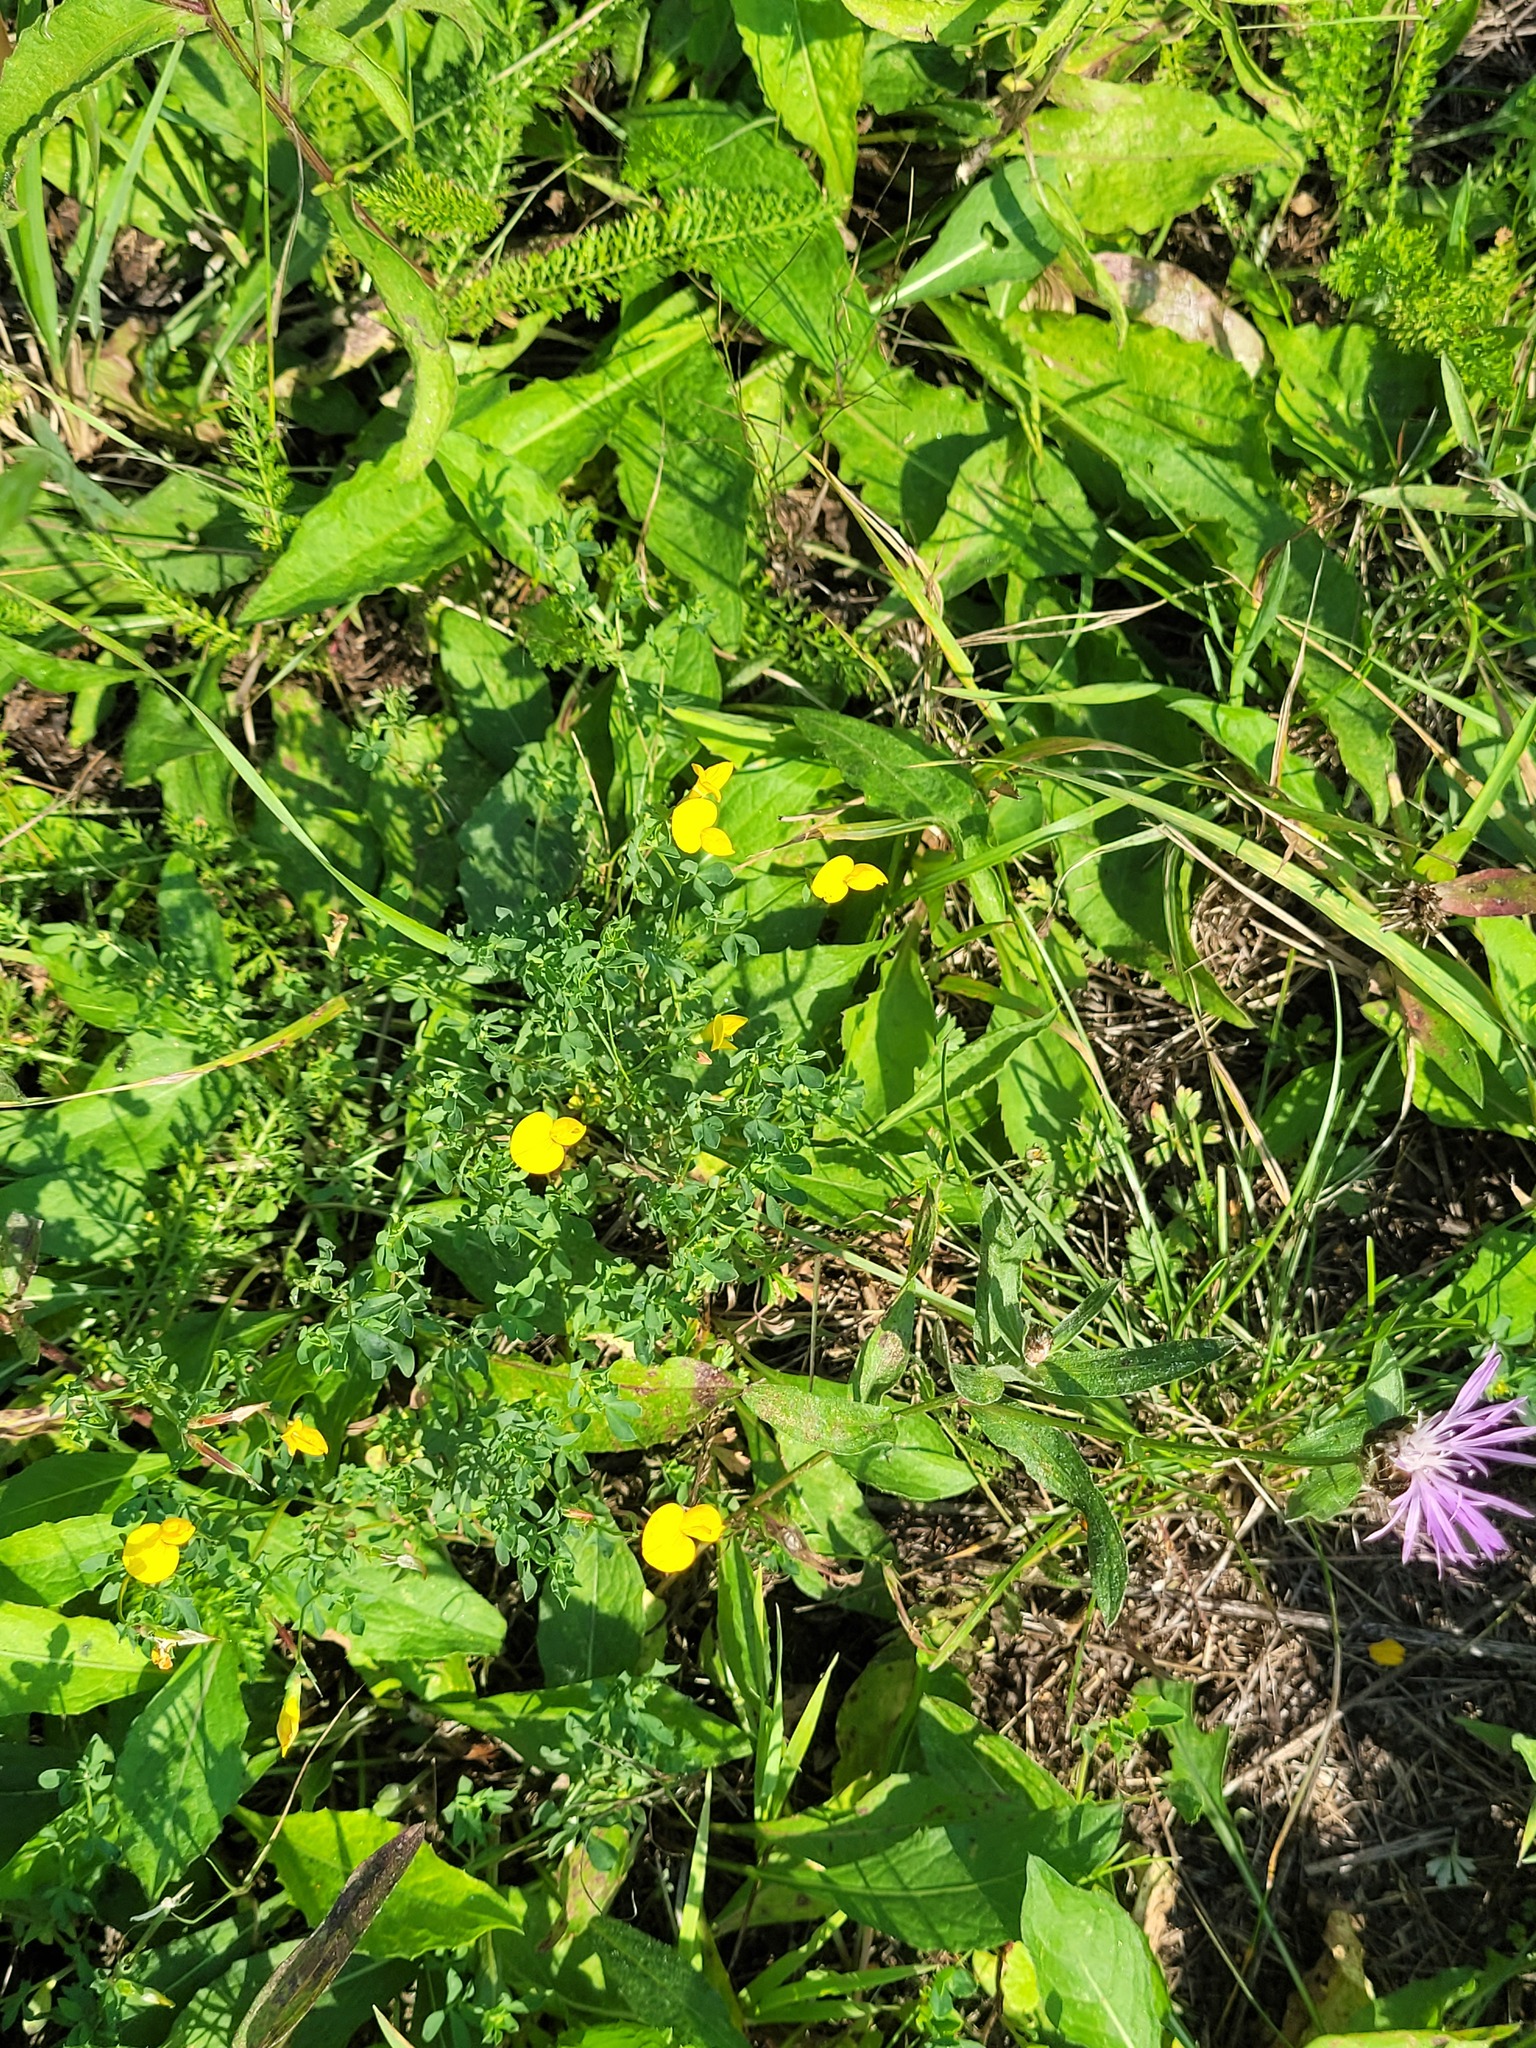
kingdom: Plantae
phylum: Tracheophyta
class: Magnoliopsida
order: Fabales
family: Fabaceae
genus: Lotus
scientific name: Lotus corniculatus
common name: Common bird's-foot-trefoil
